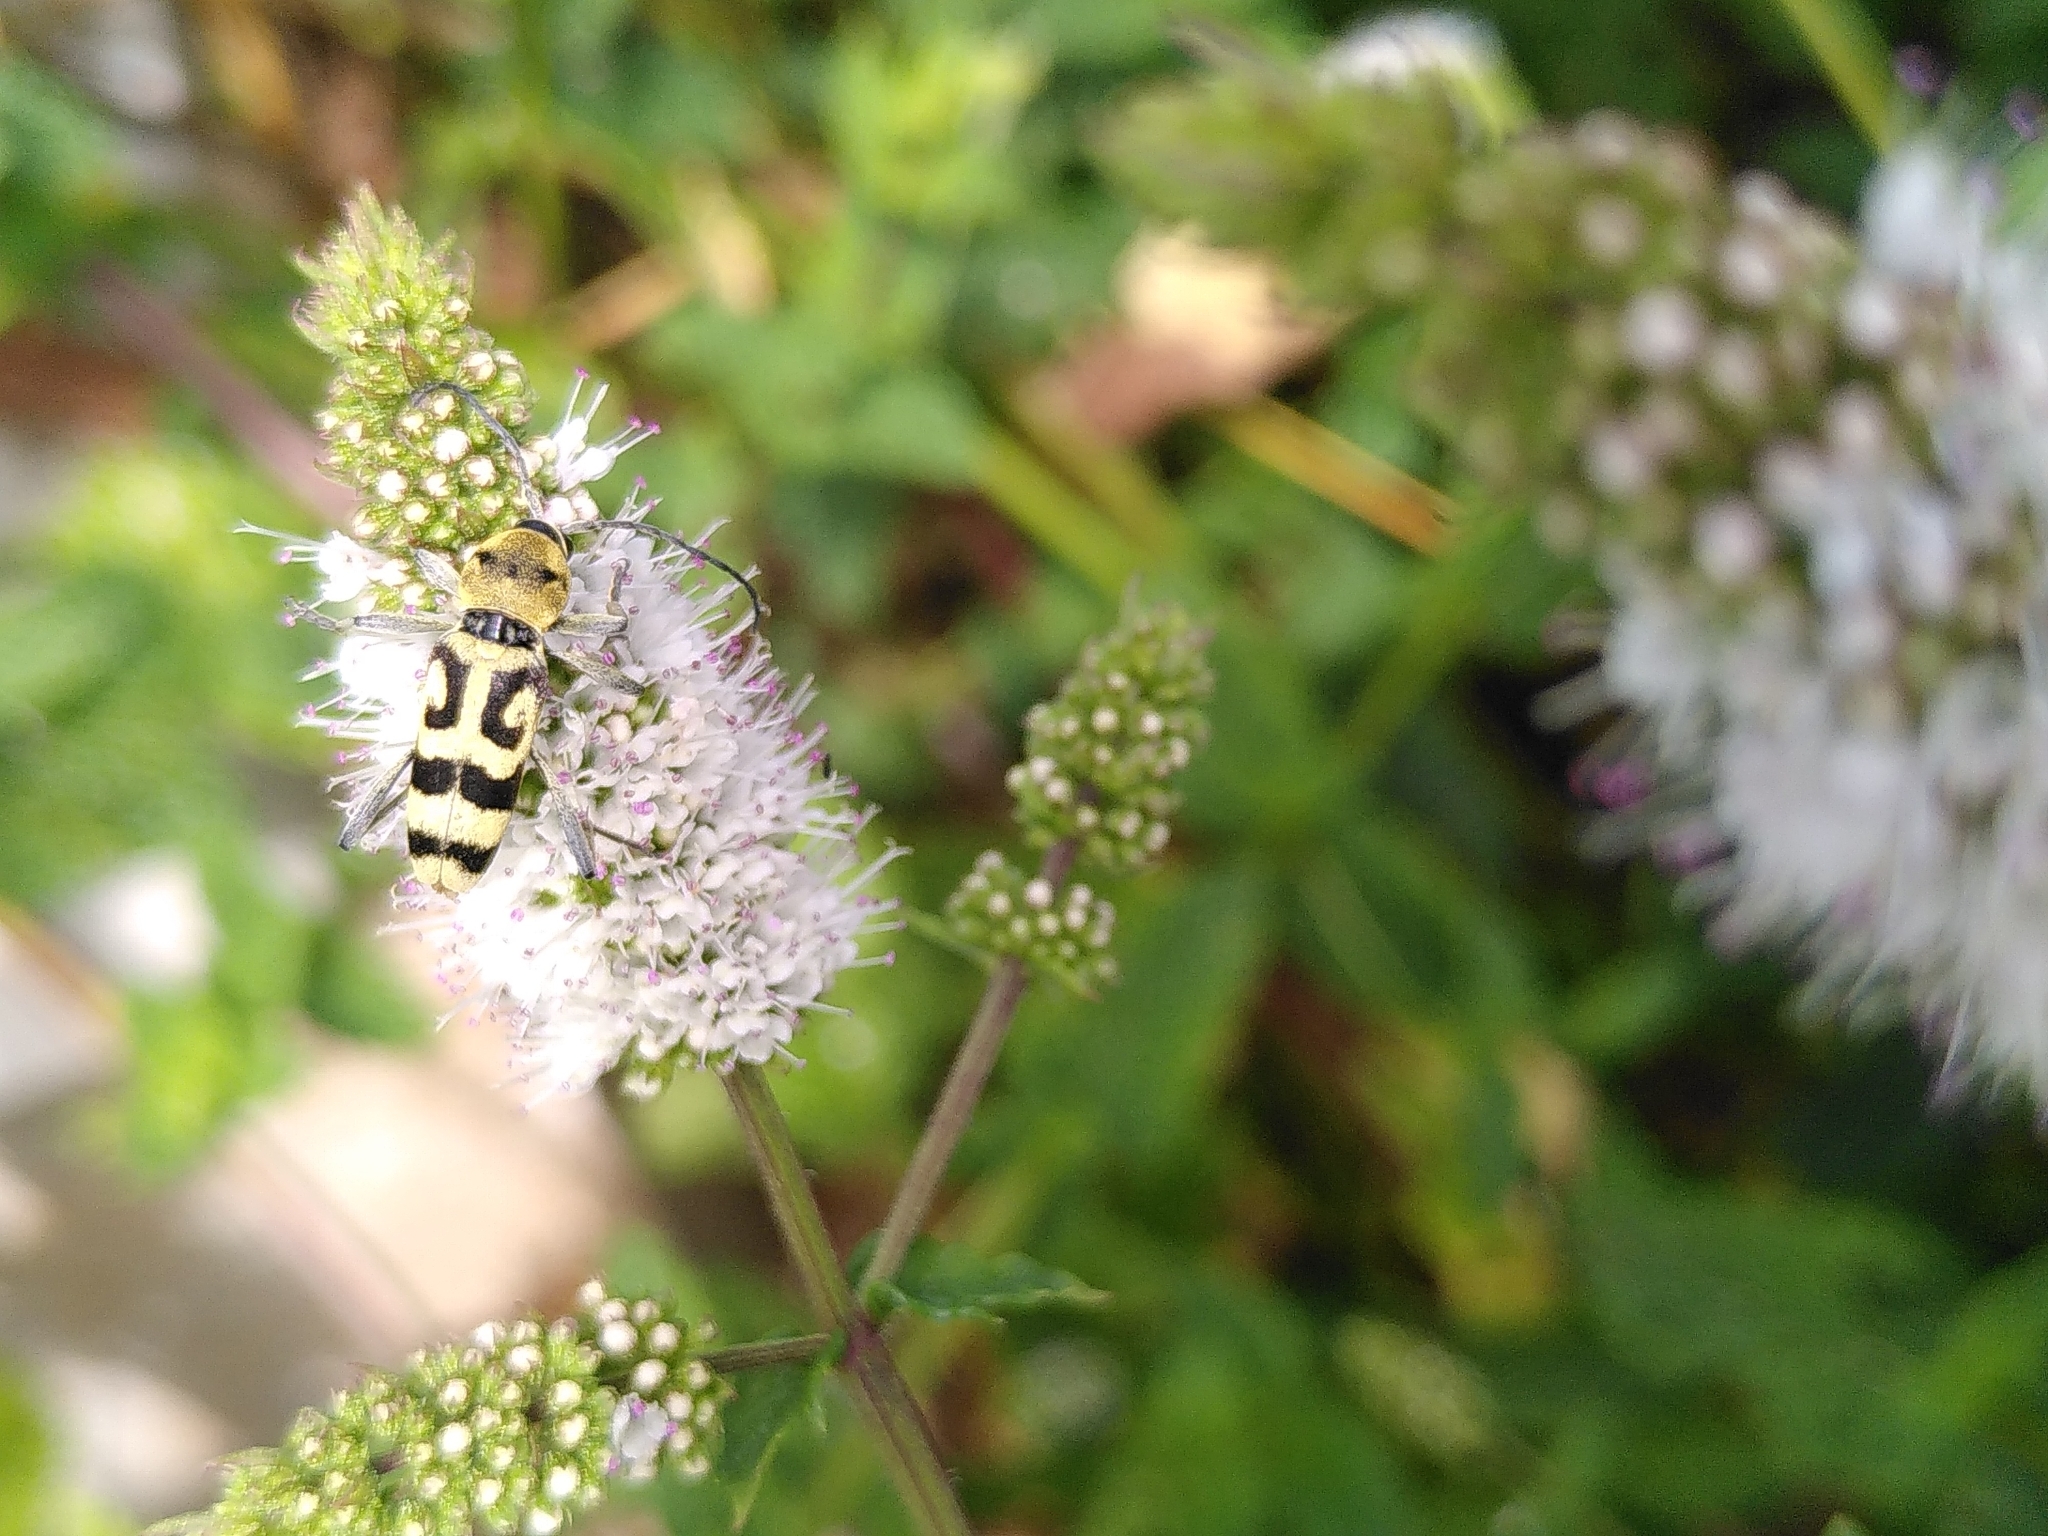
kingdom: Animalia
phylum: Arthropoda
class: Insecta
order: Coleoptera
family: Cerambycidae
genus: Chlorophorus
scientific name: Chlorophorus varius
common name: Grape wood borer
